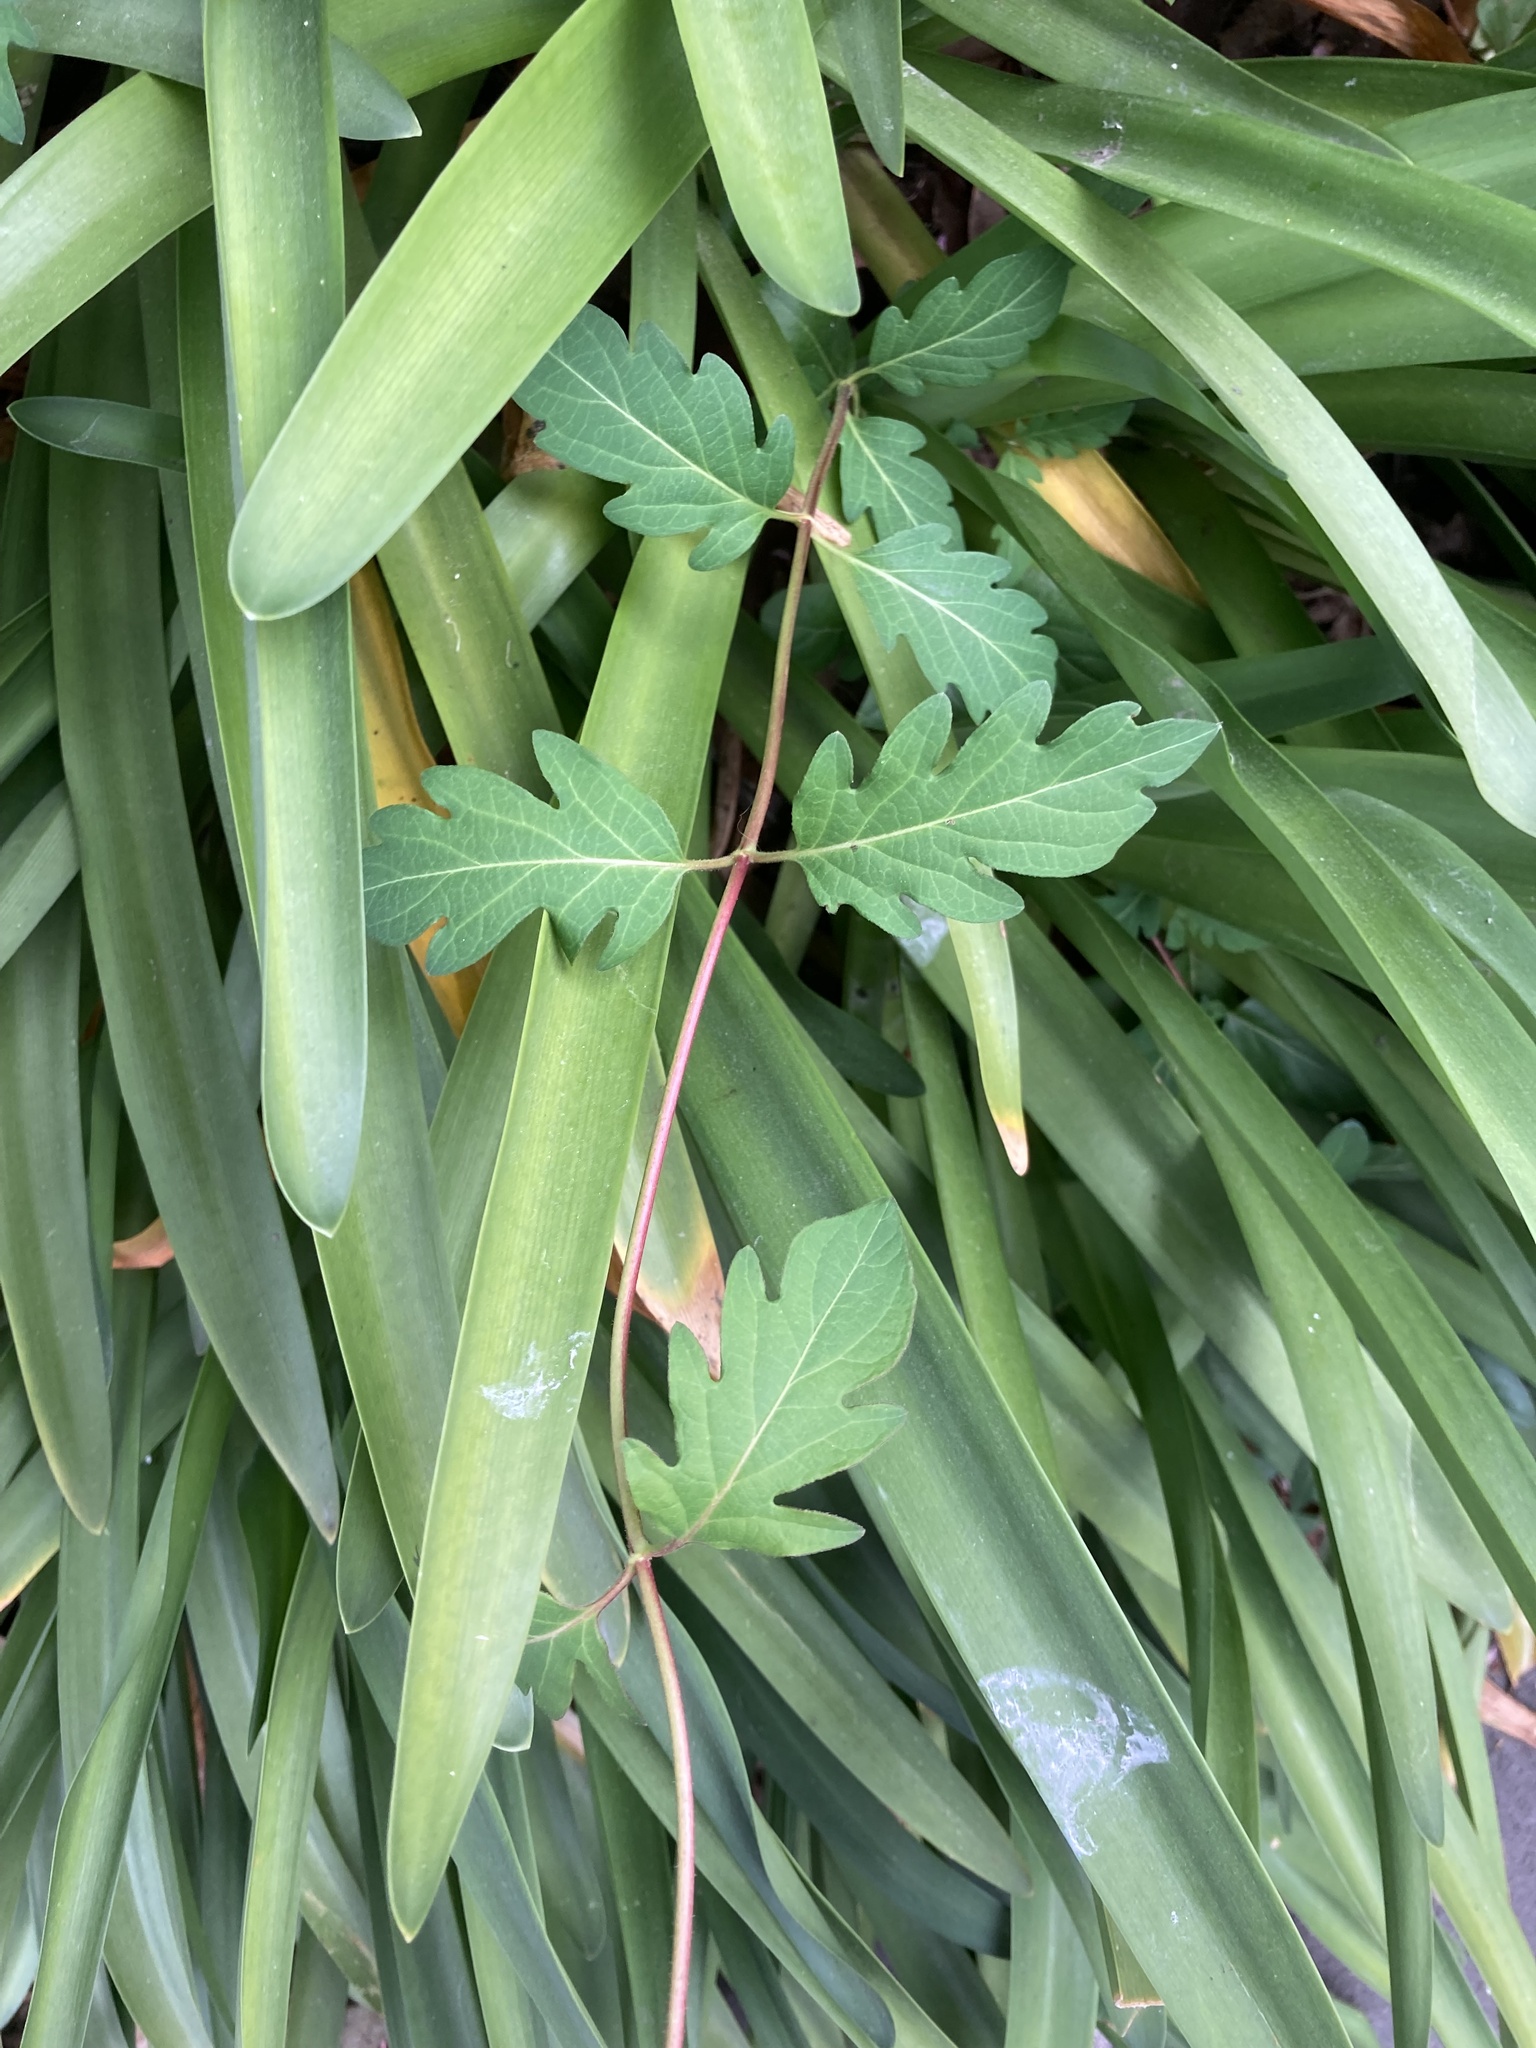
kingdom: Plantae
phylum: Tracheophyta
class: Magnoliopsida
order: Dipsacales
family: Caprifoliaceae
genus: Lonicera
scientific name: Lonicera japonica
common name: Japanese honeysuckle
